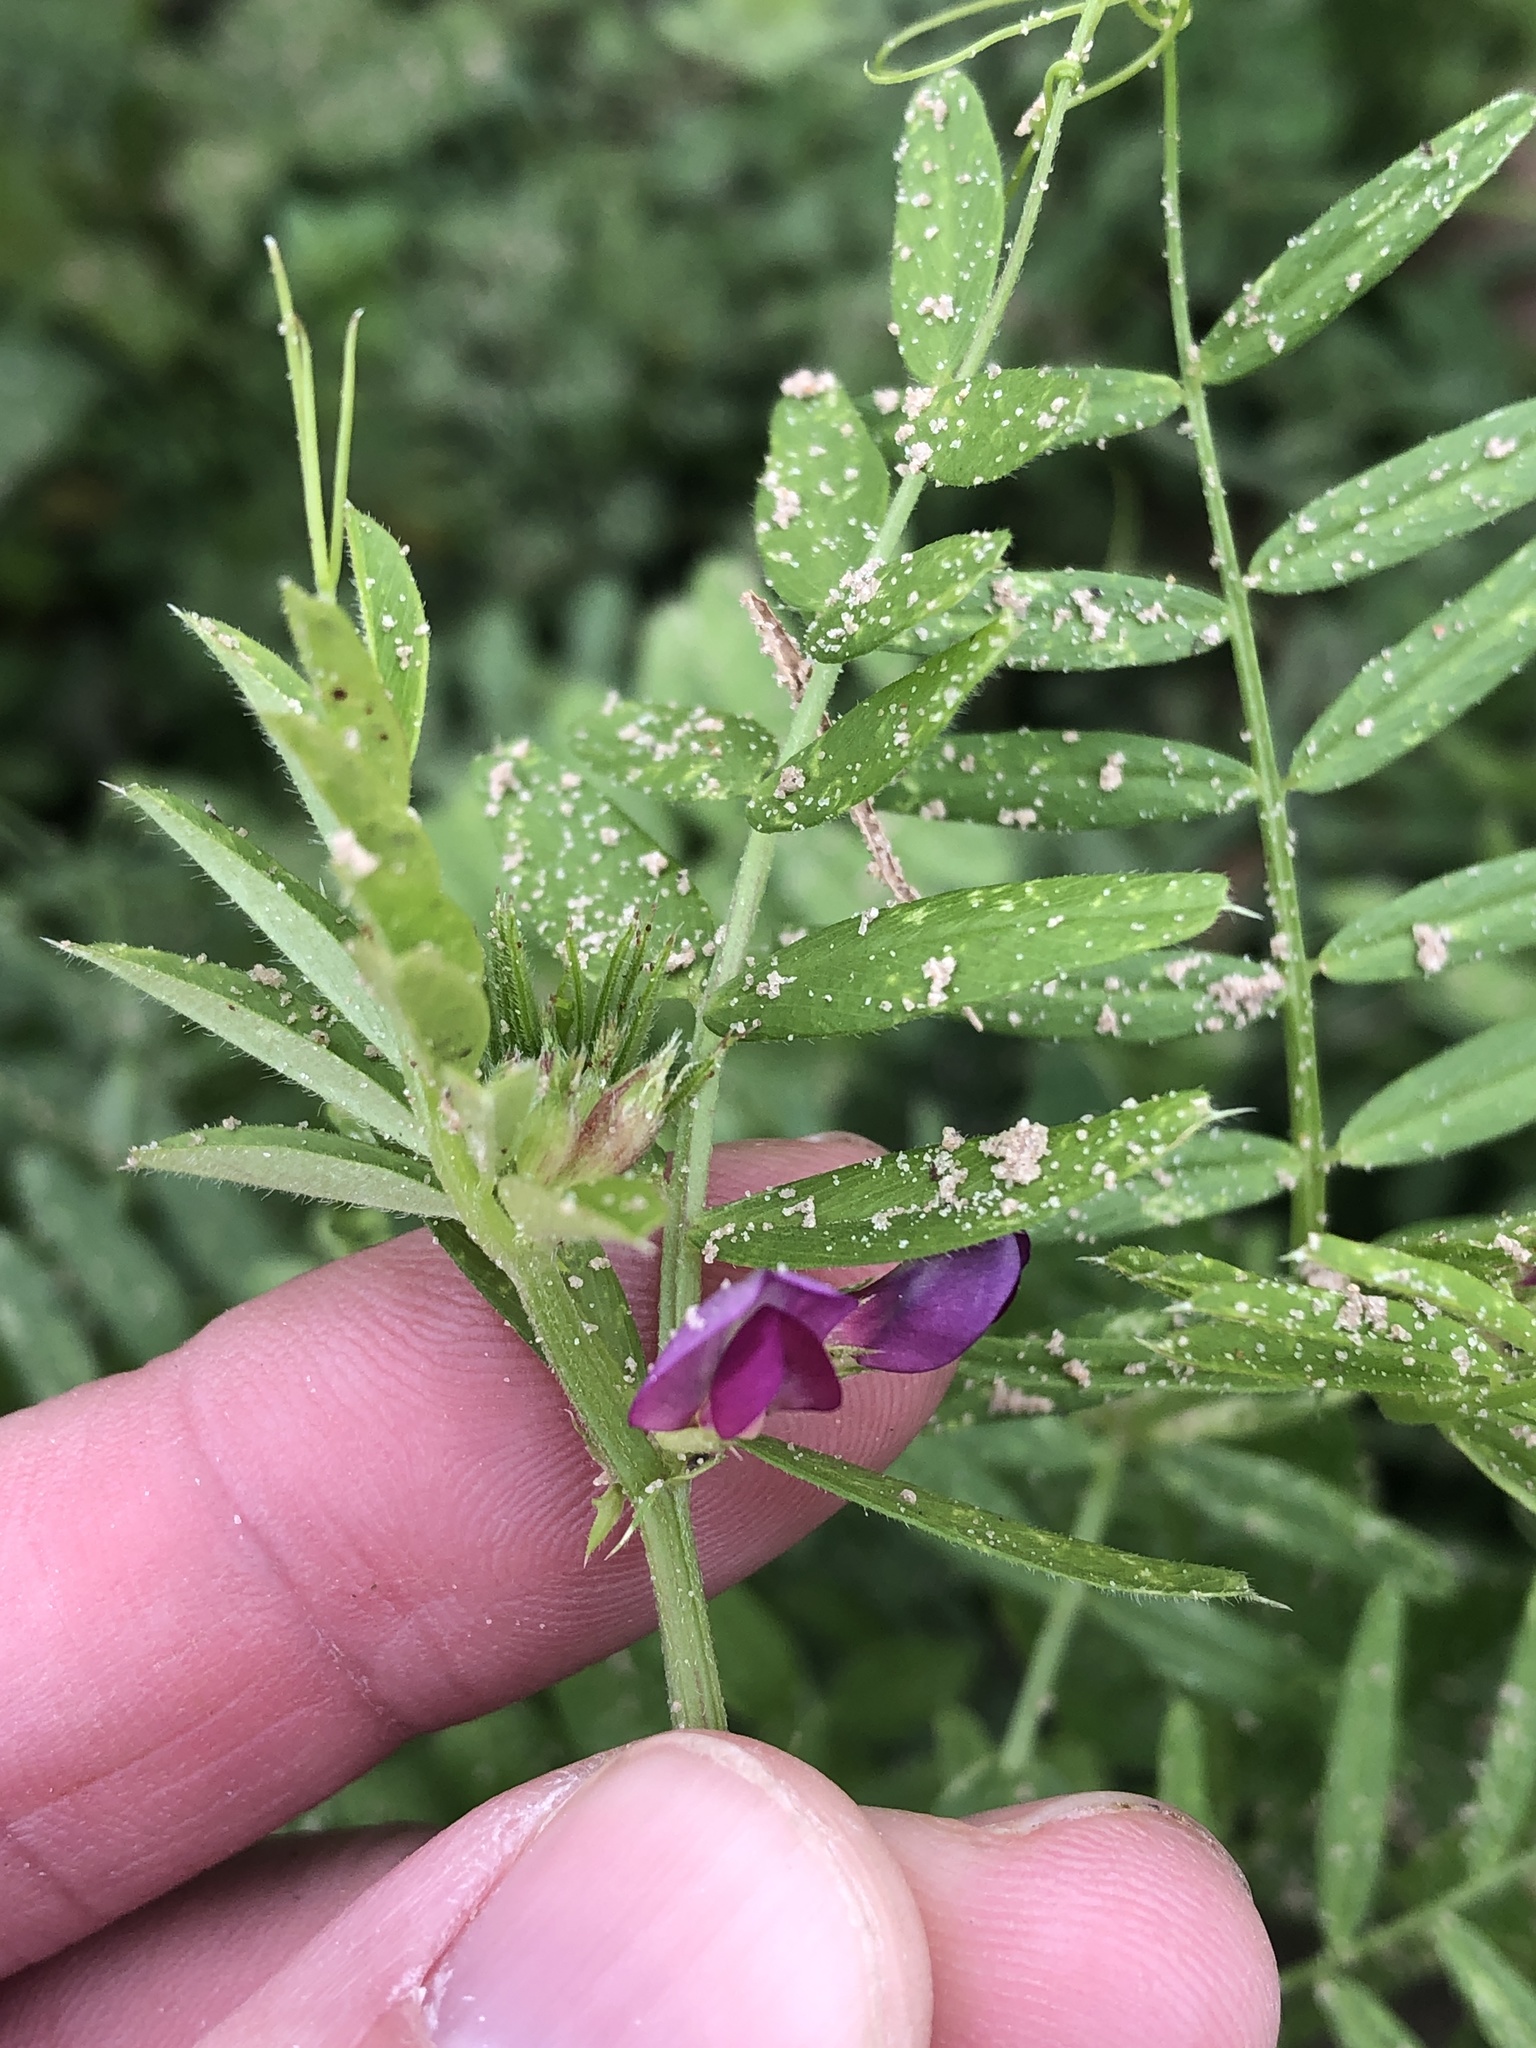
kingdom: Plantae
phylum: Tracheophyta
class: Magnoliopsida
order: Fabales
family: Fabaceae
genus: Vicia
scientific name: Vicia sativa
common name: Garden vetch
